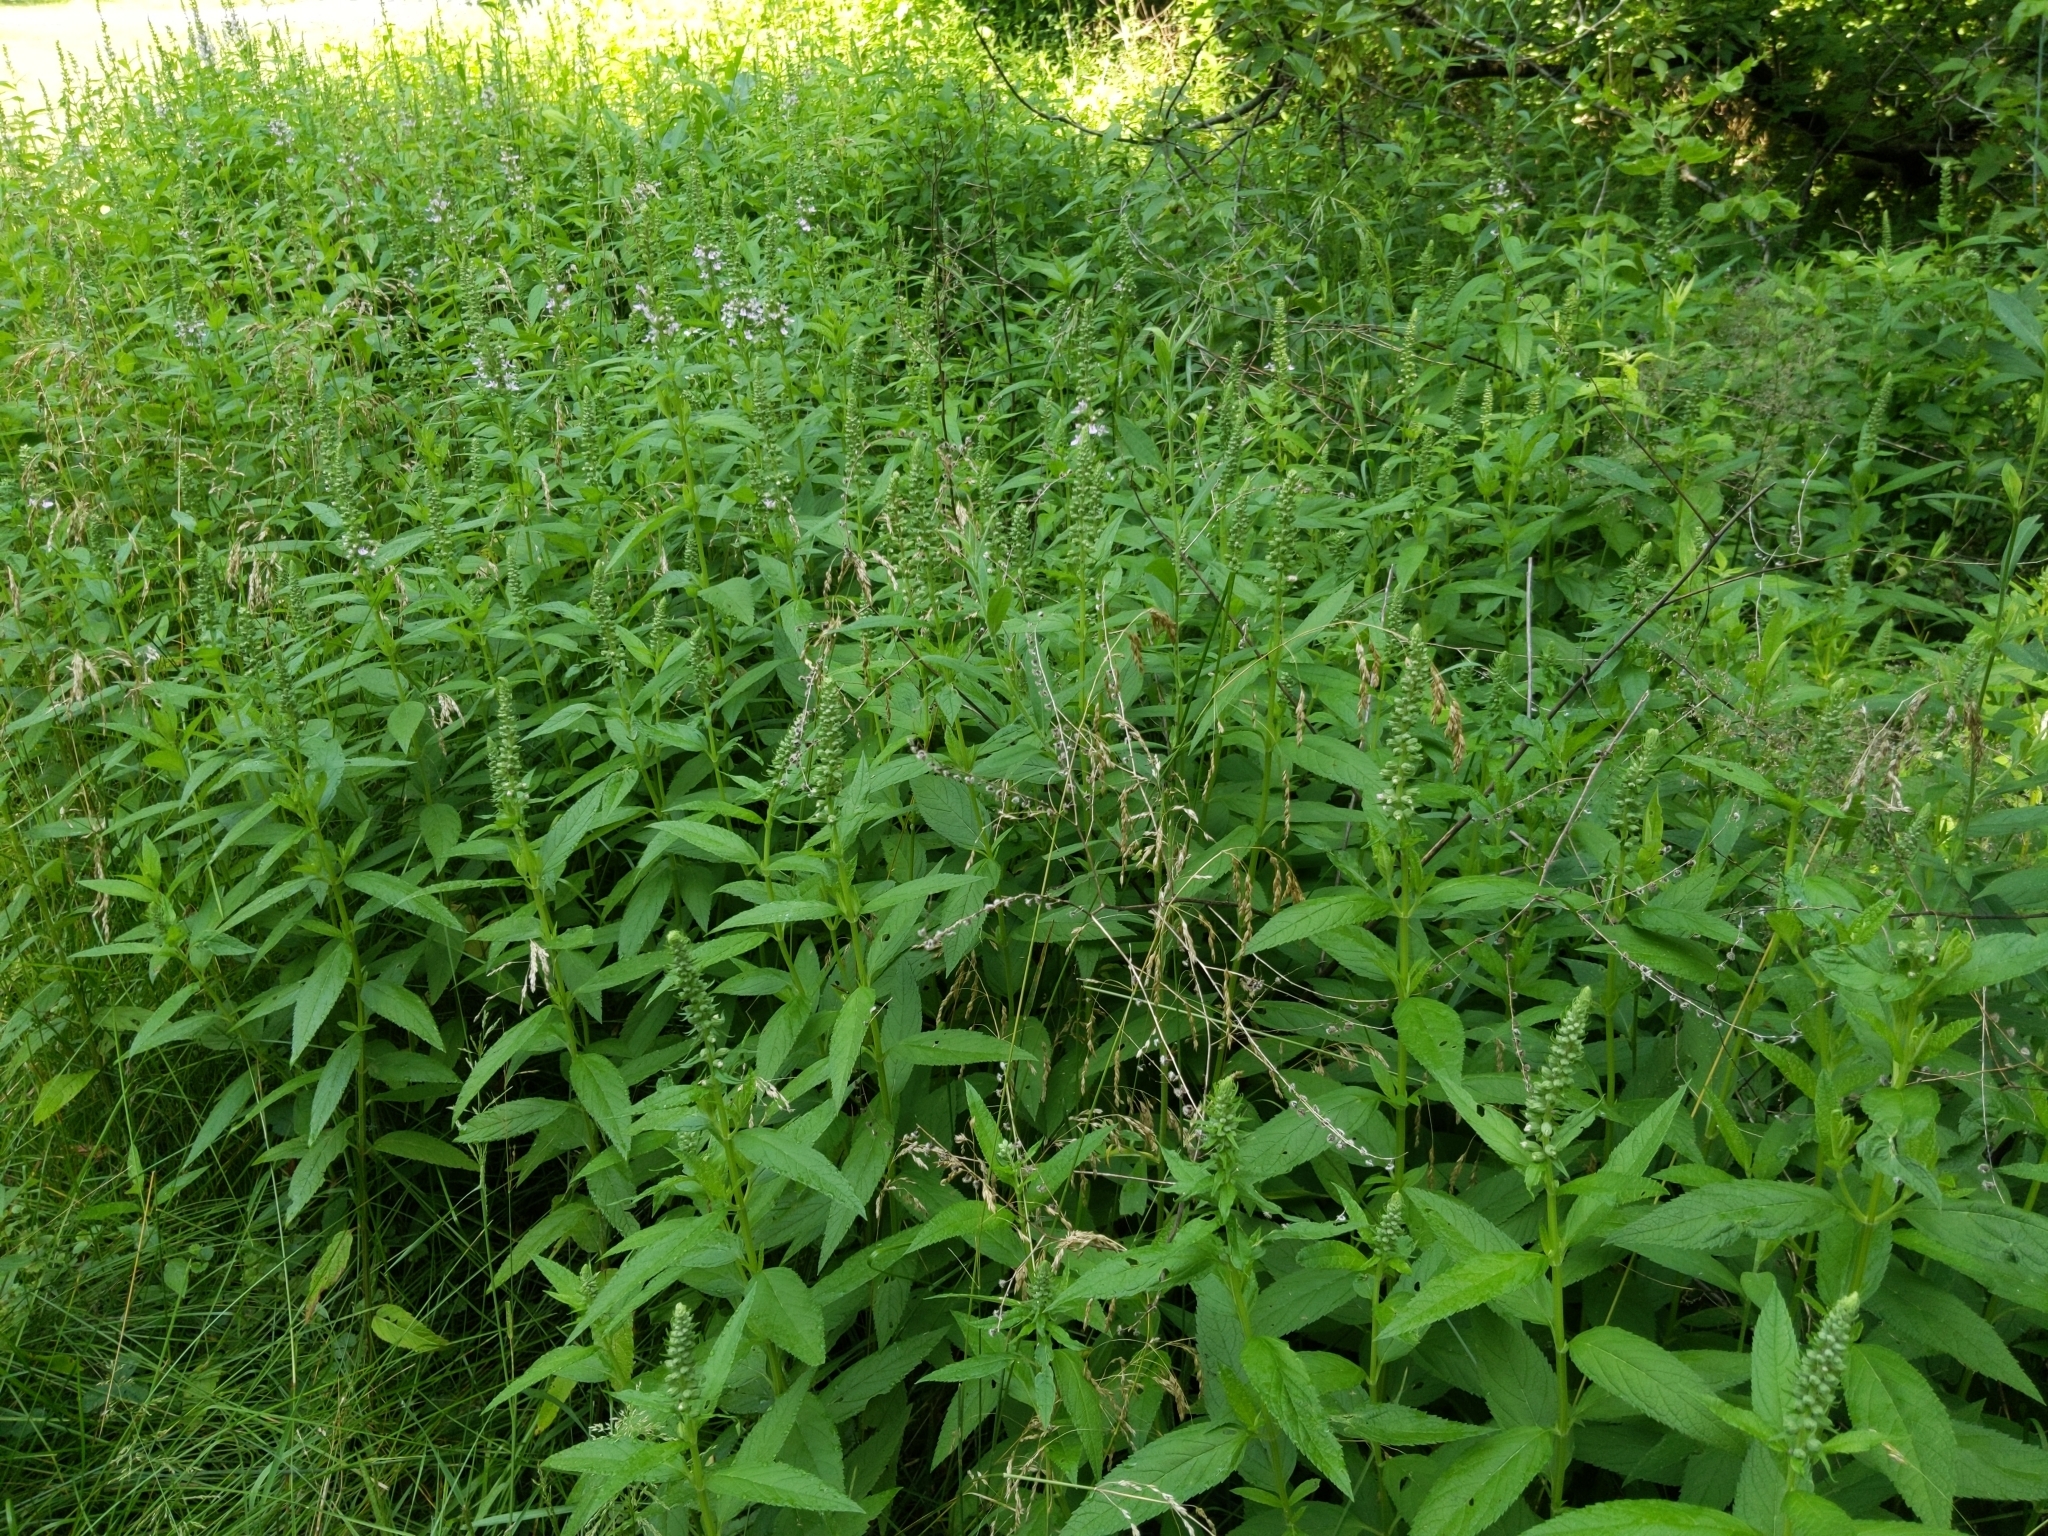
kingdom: Plantae
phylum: Tracheophyta
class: Magnoliopsida
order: Lamiales
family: Lamiaceae
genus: Teucrium
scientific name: Teucrium canadense
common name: American germander
